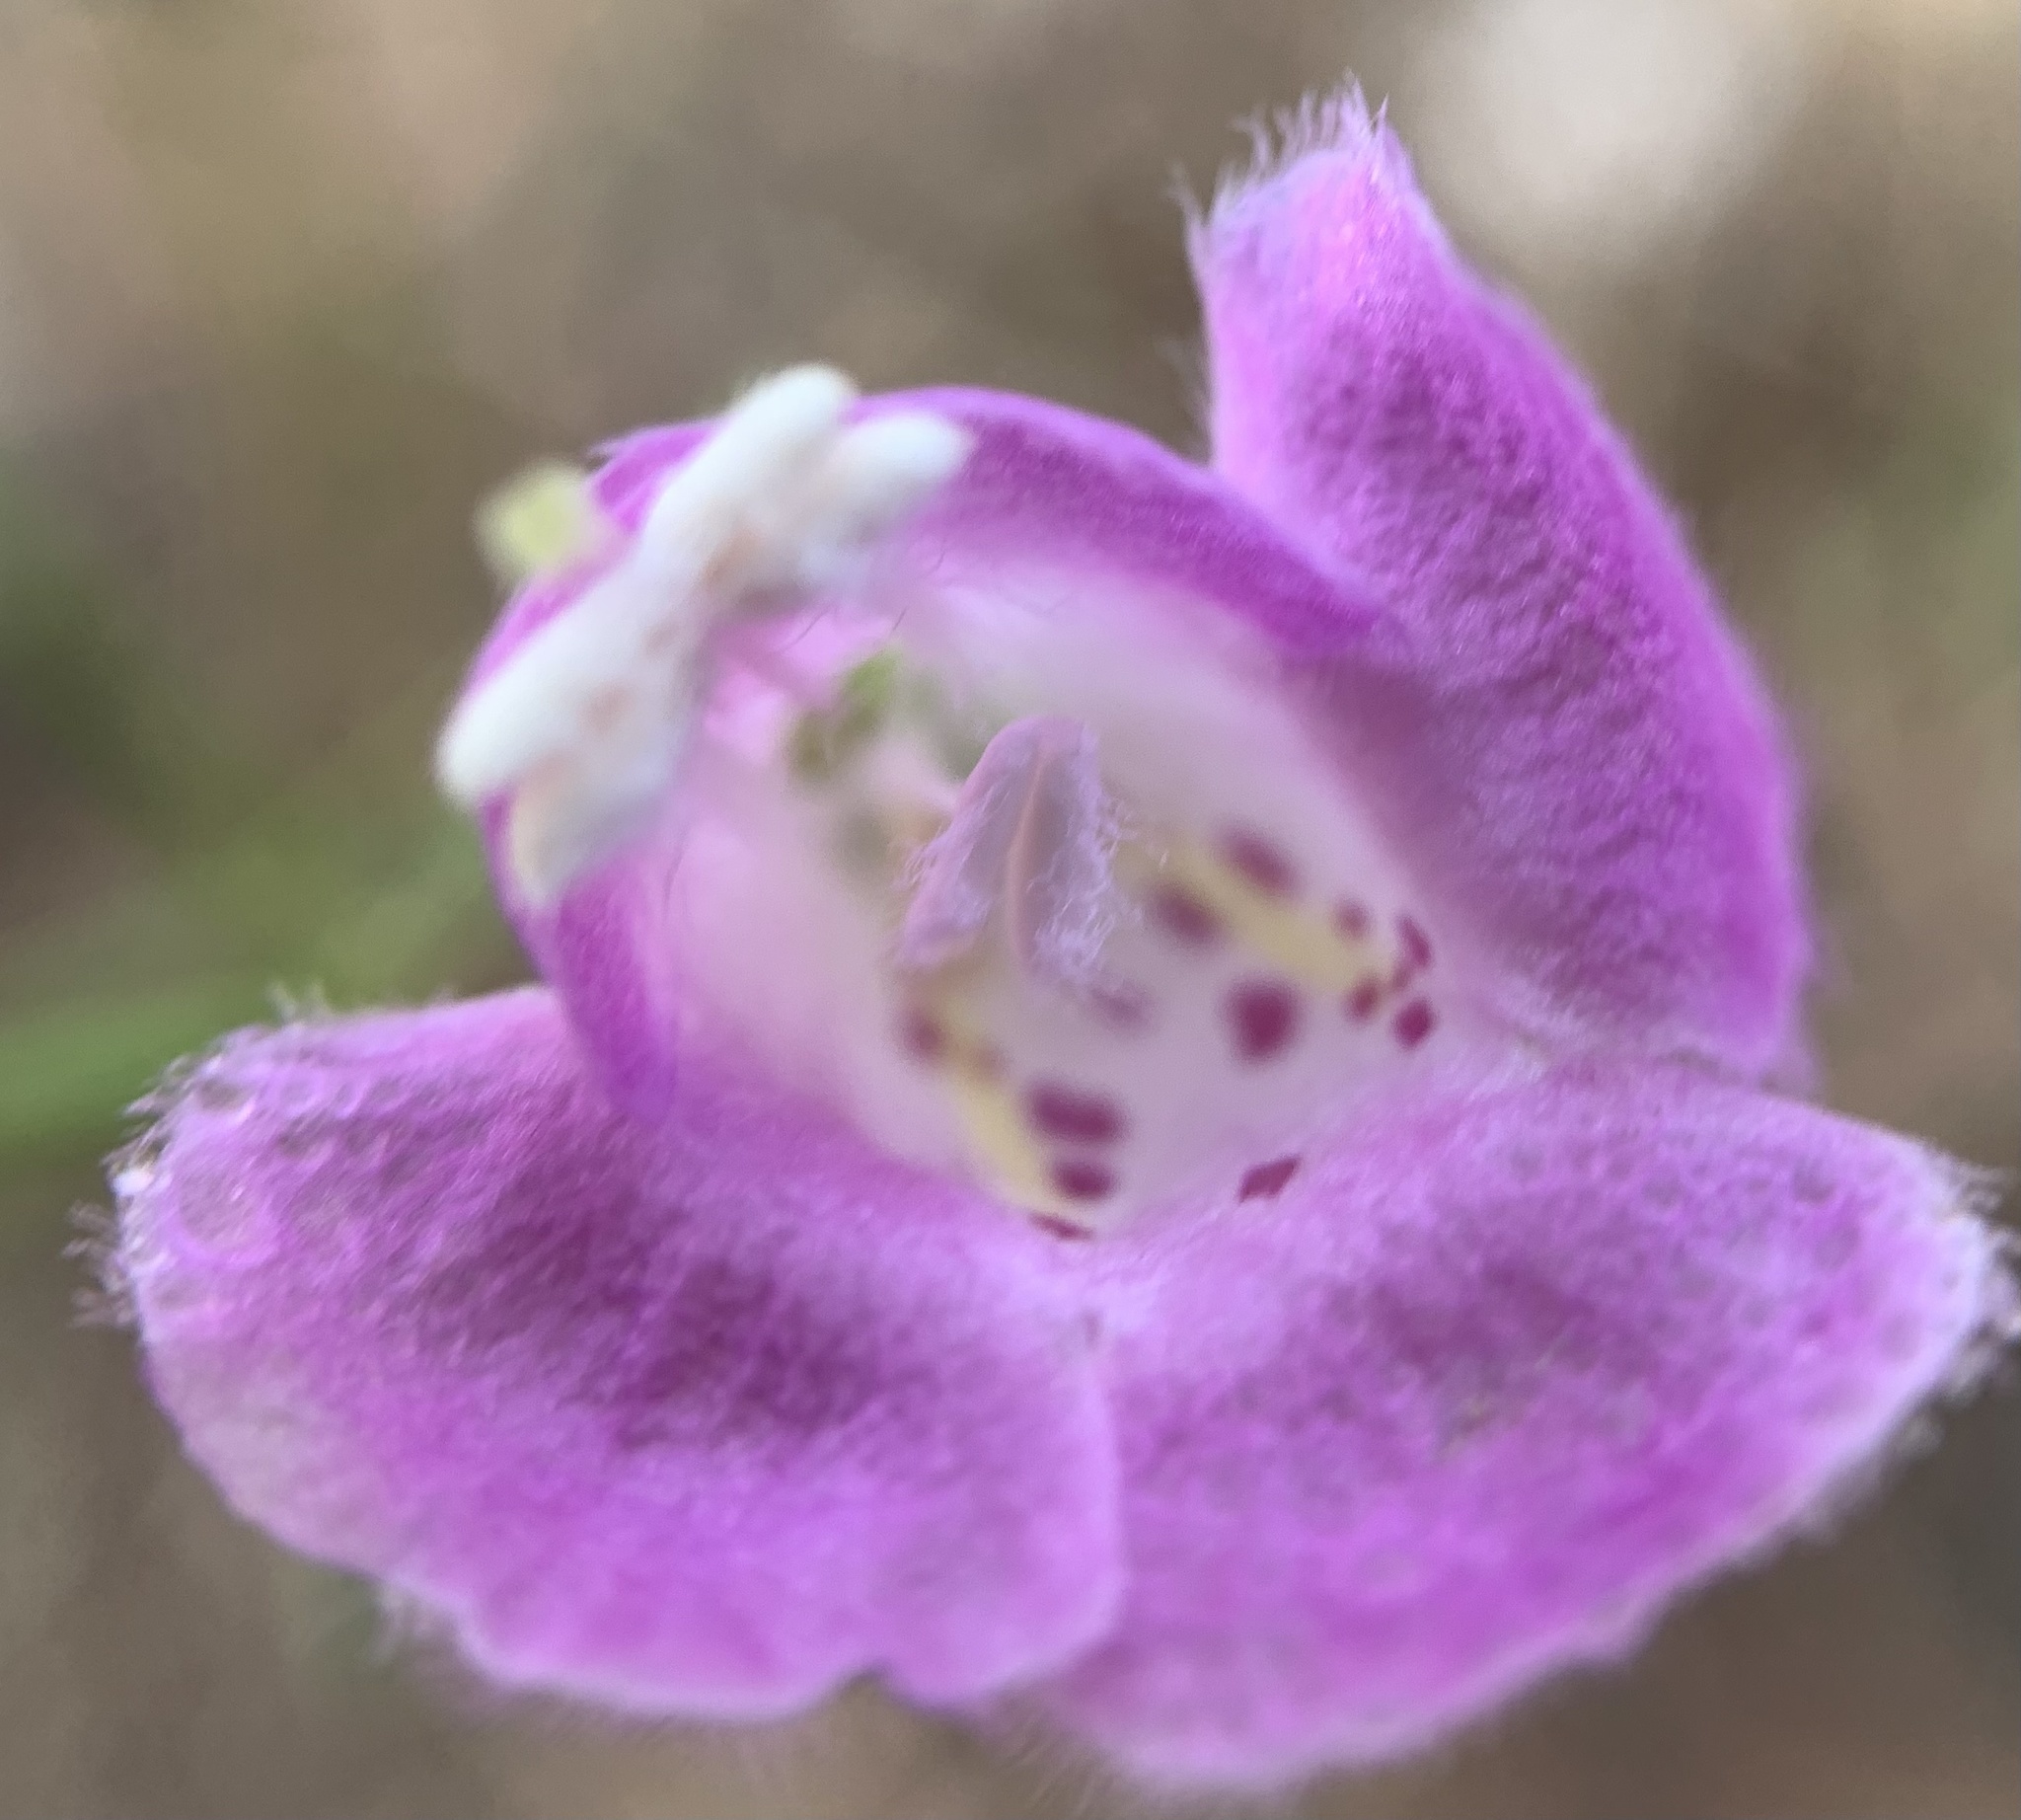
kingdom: Plantae
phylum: Tracheophyta
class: Magnoliopsida
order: Lamiales
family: Orobanchaceae
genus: Agalinis
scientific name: Agalinis edwardsiana
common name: Plateau-gerardia
